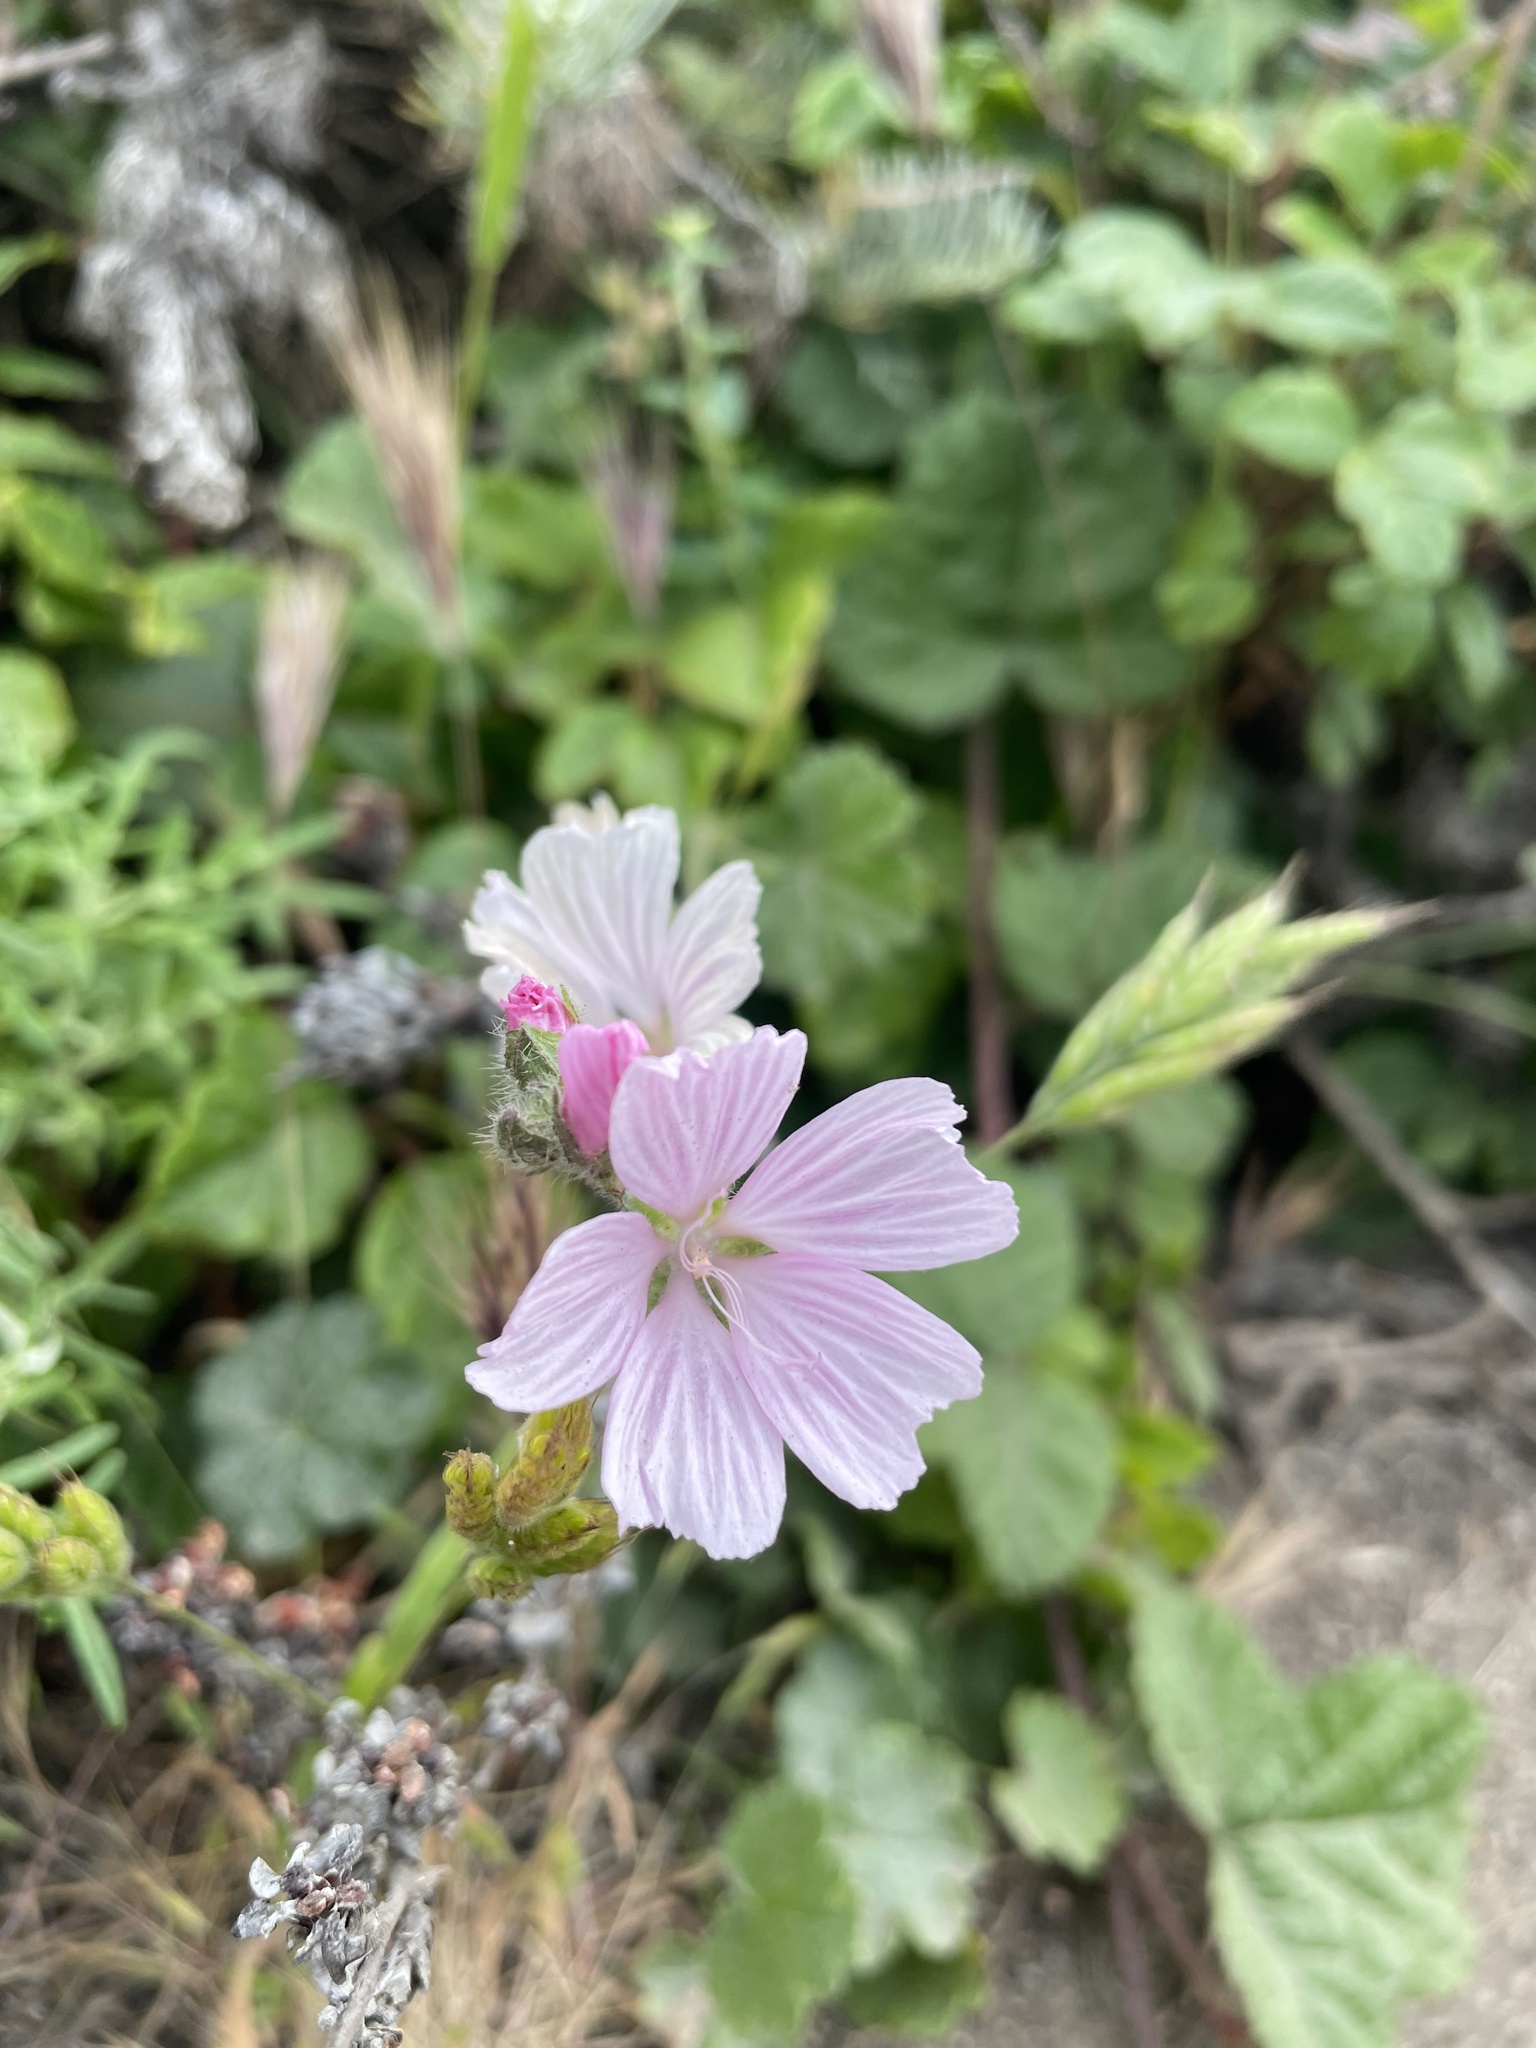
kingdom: Plantae
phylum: Tracheophyta
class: Magnoliopsida
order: Malvales
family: Malvaceae
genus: Sidalcea
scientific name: Sidalcea malviflora
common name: Greek mallow
